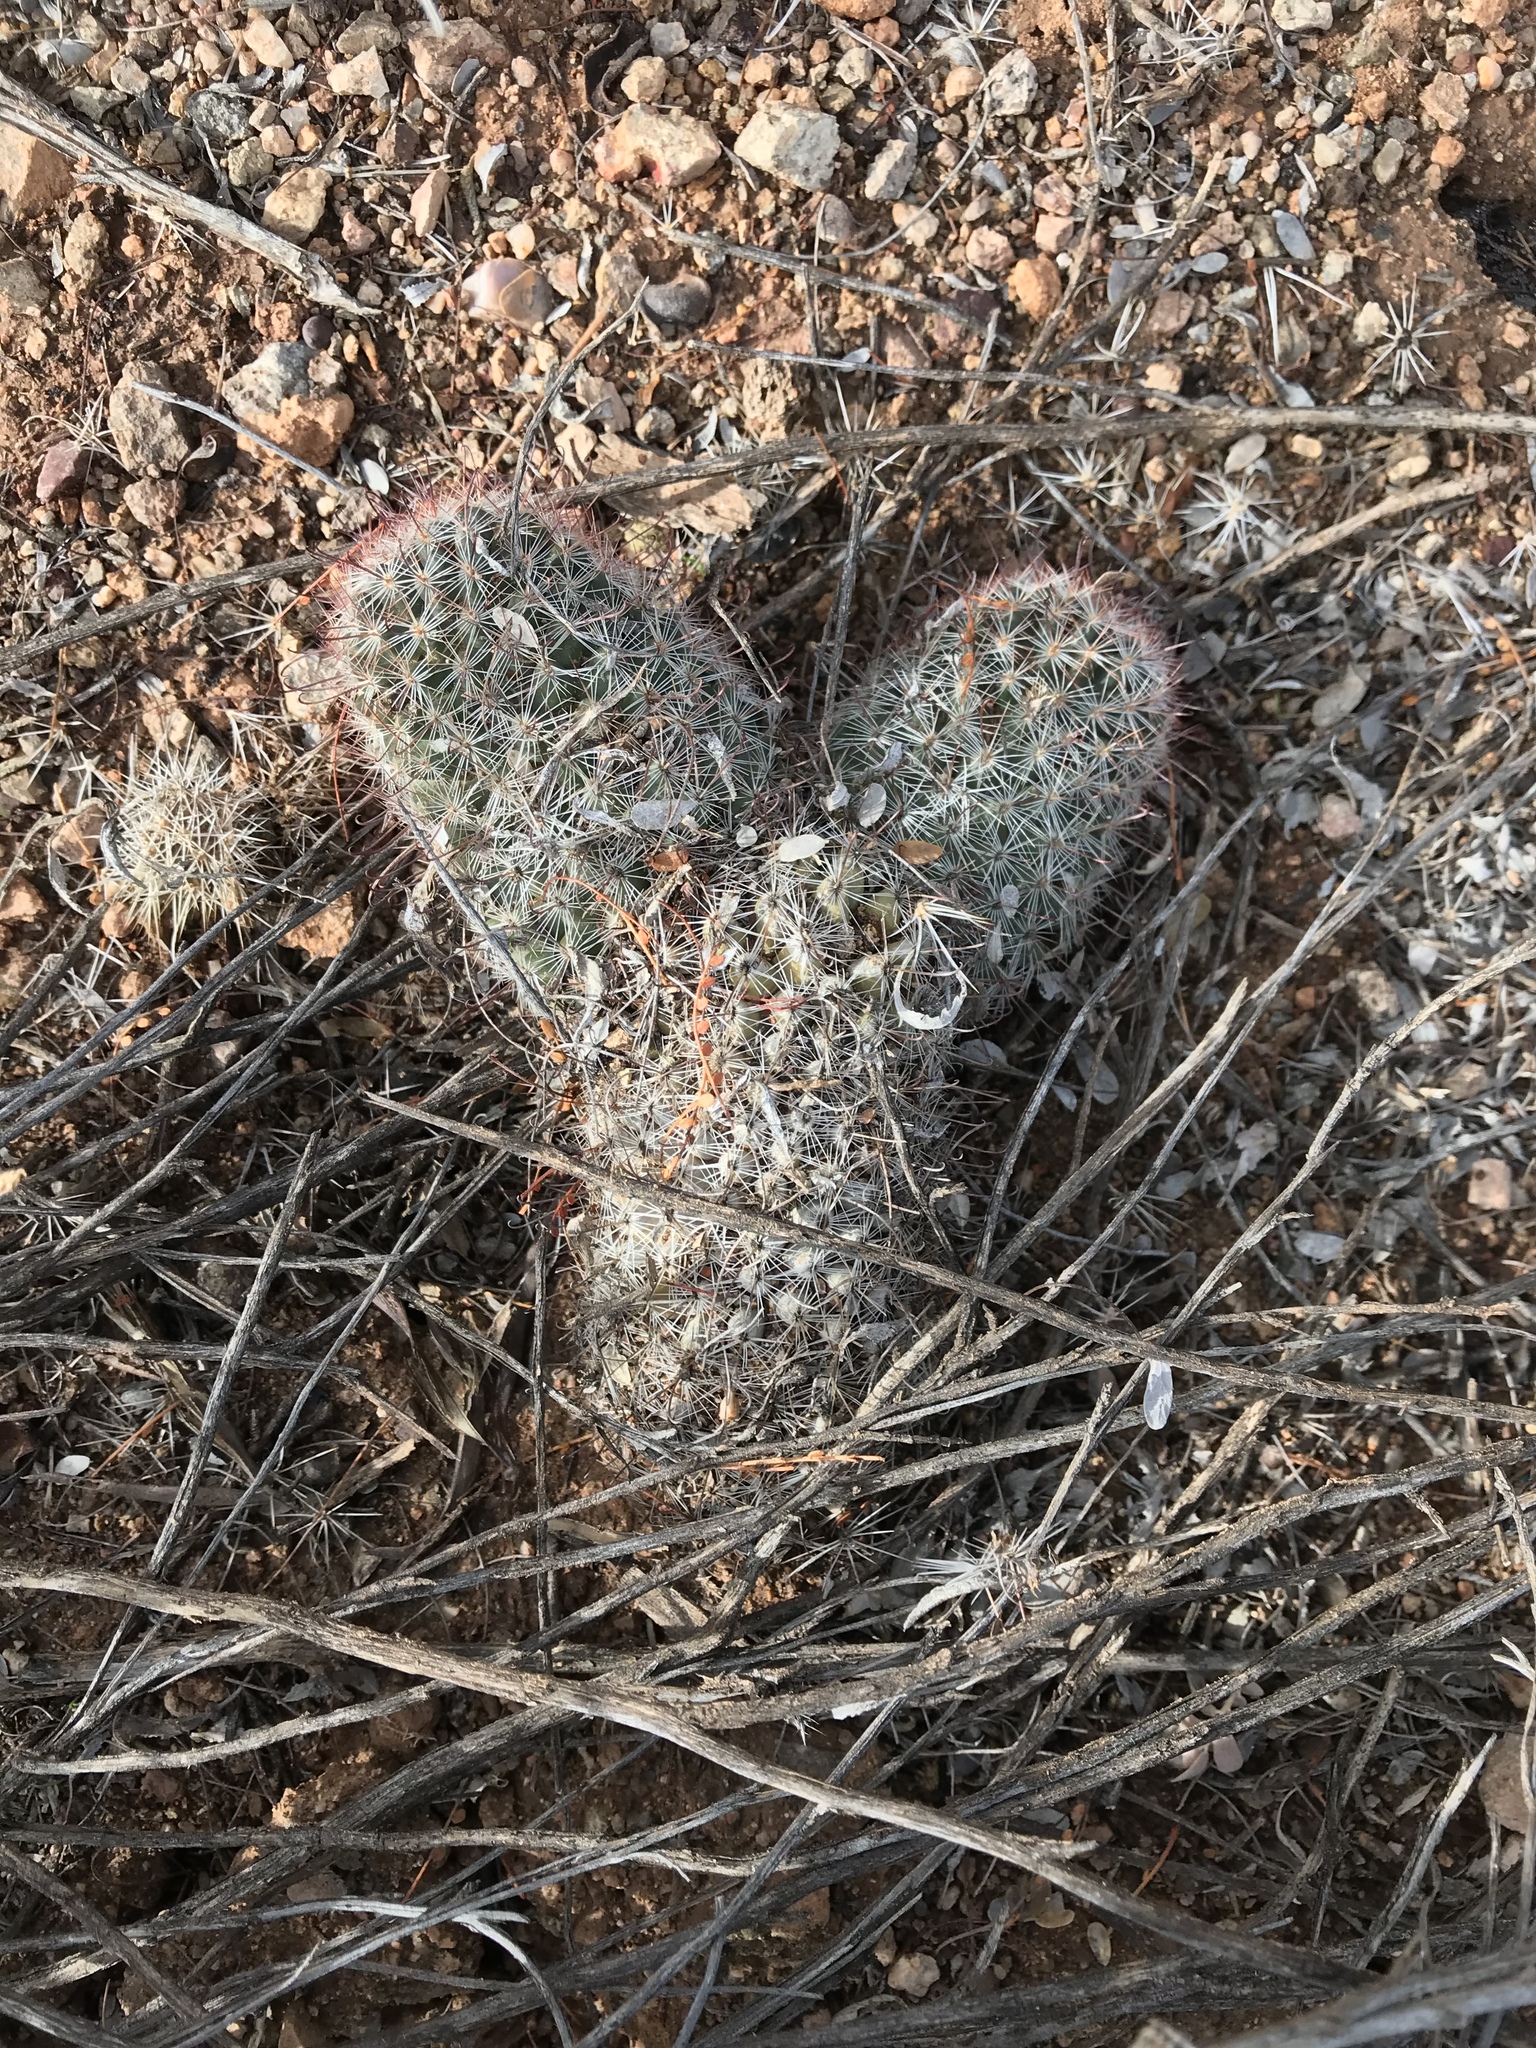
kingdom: Plantae
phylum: Tracheophyta
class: Magnoliopsida
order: Caryophyllales
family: Cactaceae
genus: Cochemiea
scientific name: Cochemiea grahamii
